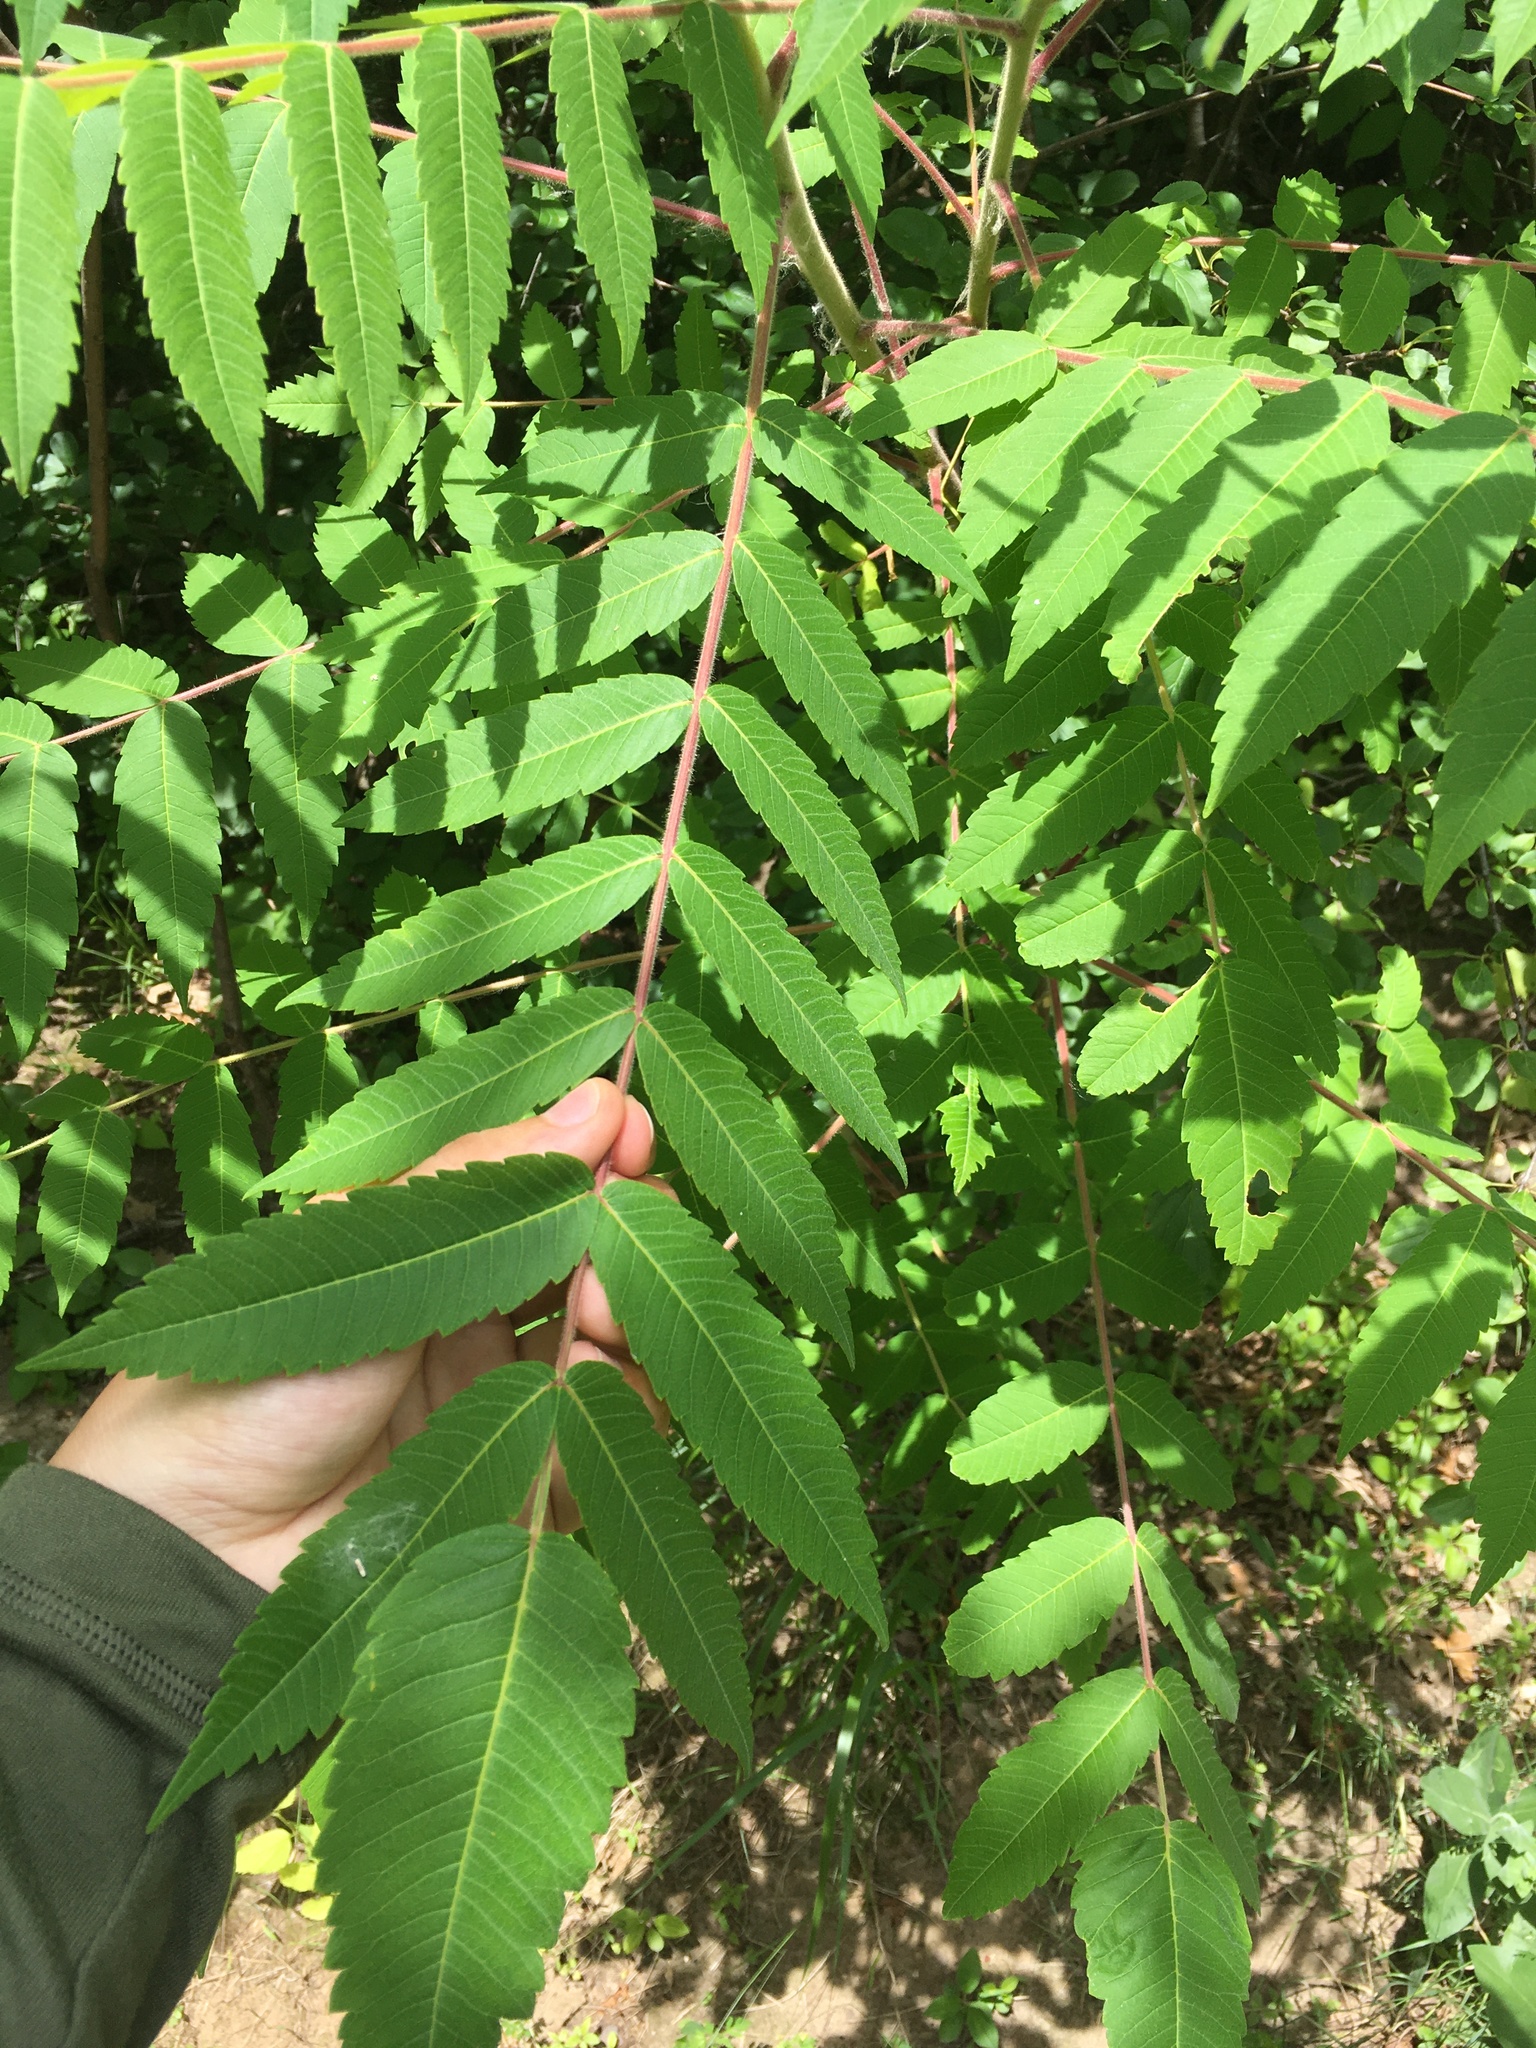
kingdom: Plantae
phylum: Tracheophyta
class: Magnoliopsida
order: Sapindales
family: Anacardiaceae
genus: Rhus
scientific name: Rhus typhina
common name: Staghorn sumac
